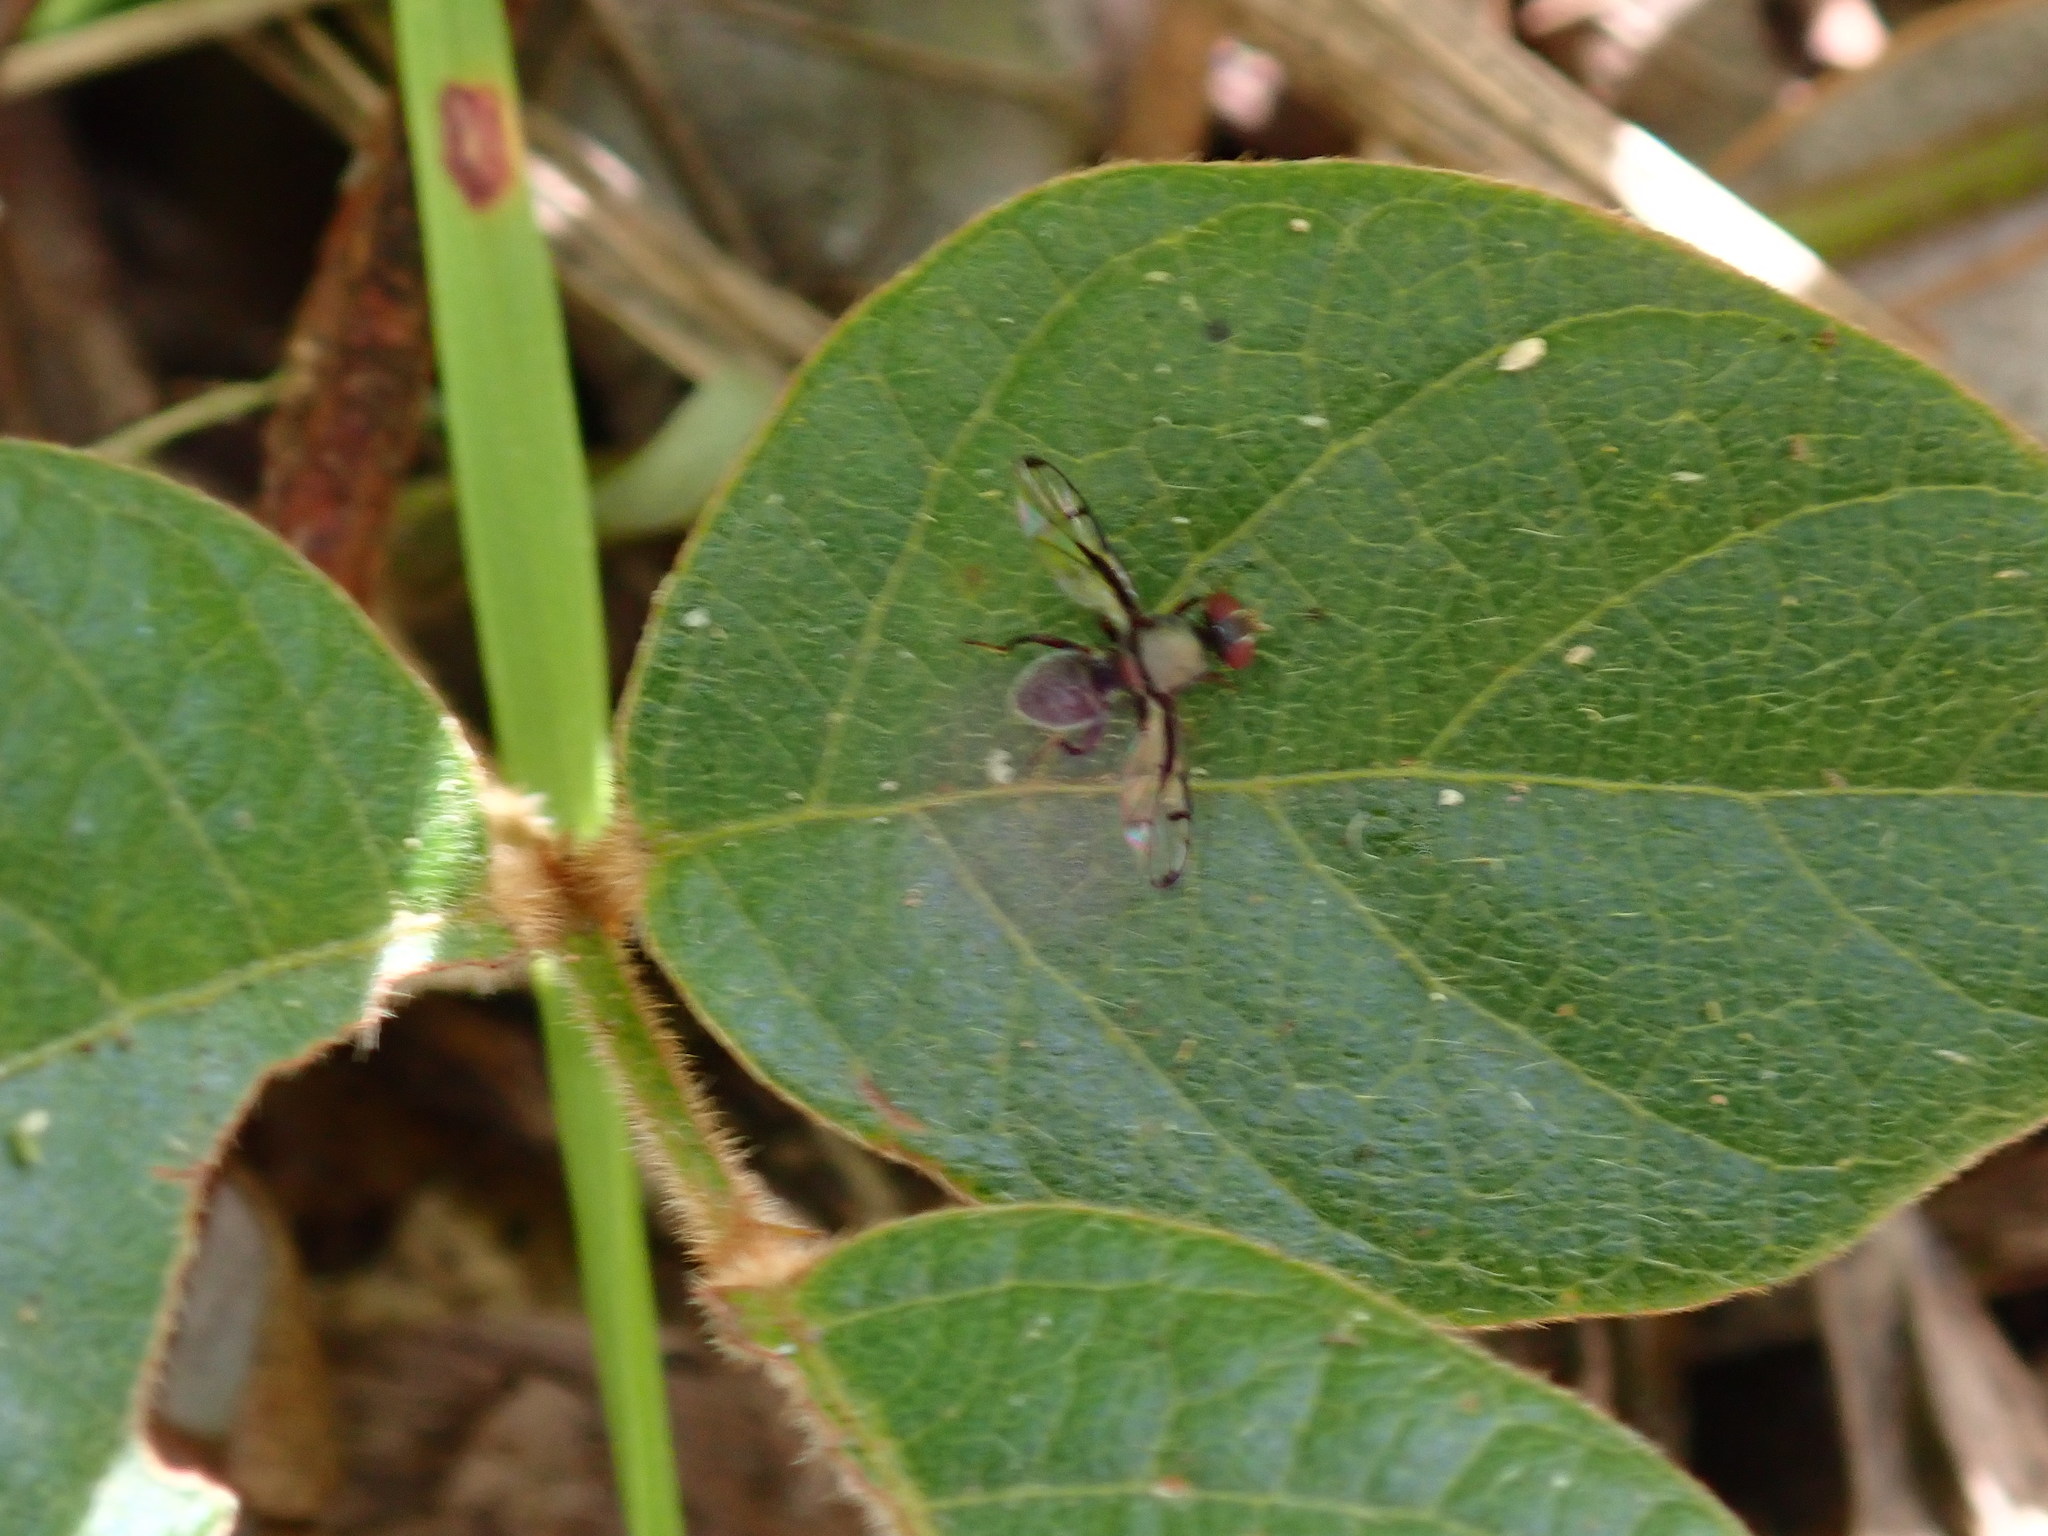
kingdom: Animalia
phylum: Arthropoda
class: Insecta
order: Diptera
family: Platystomatidae
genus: Pogonortalis
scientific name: Pogonortalis doclea
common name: Boatman fly
